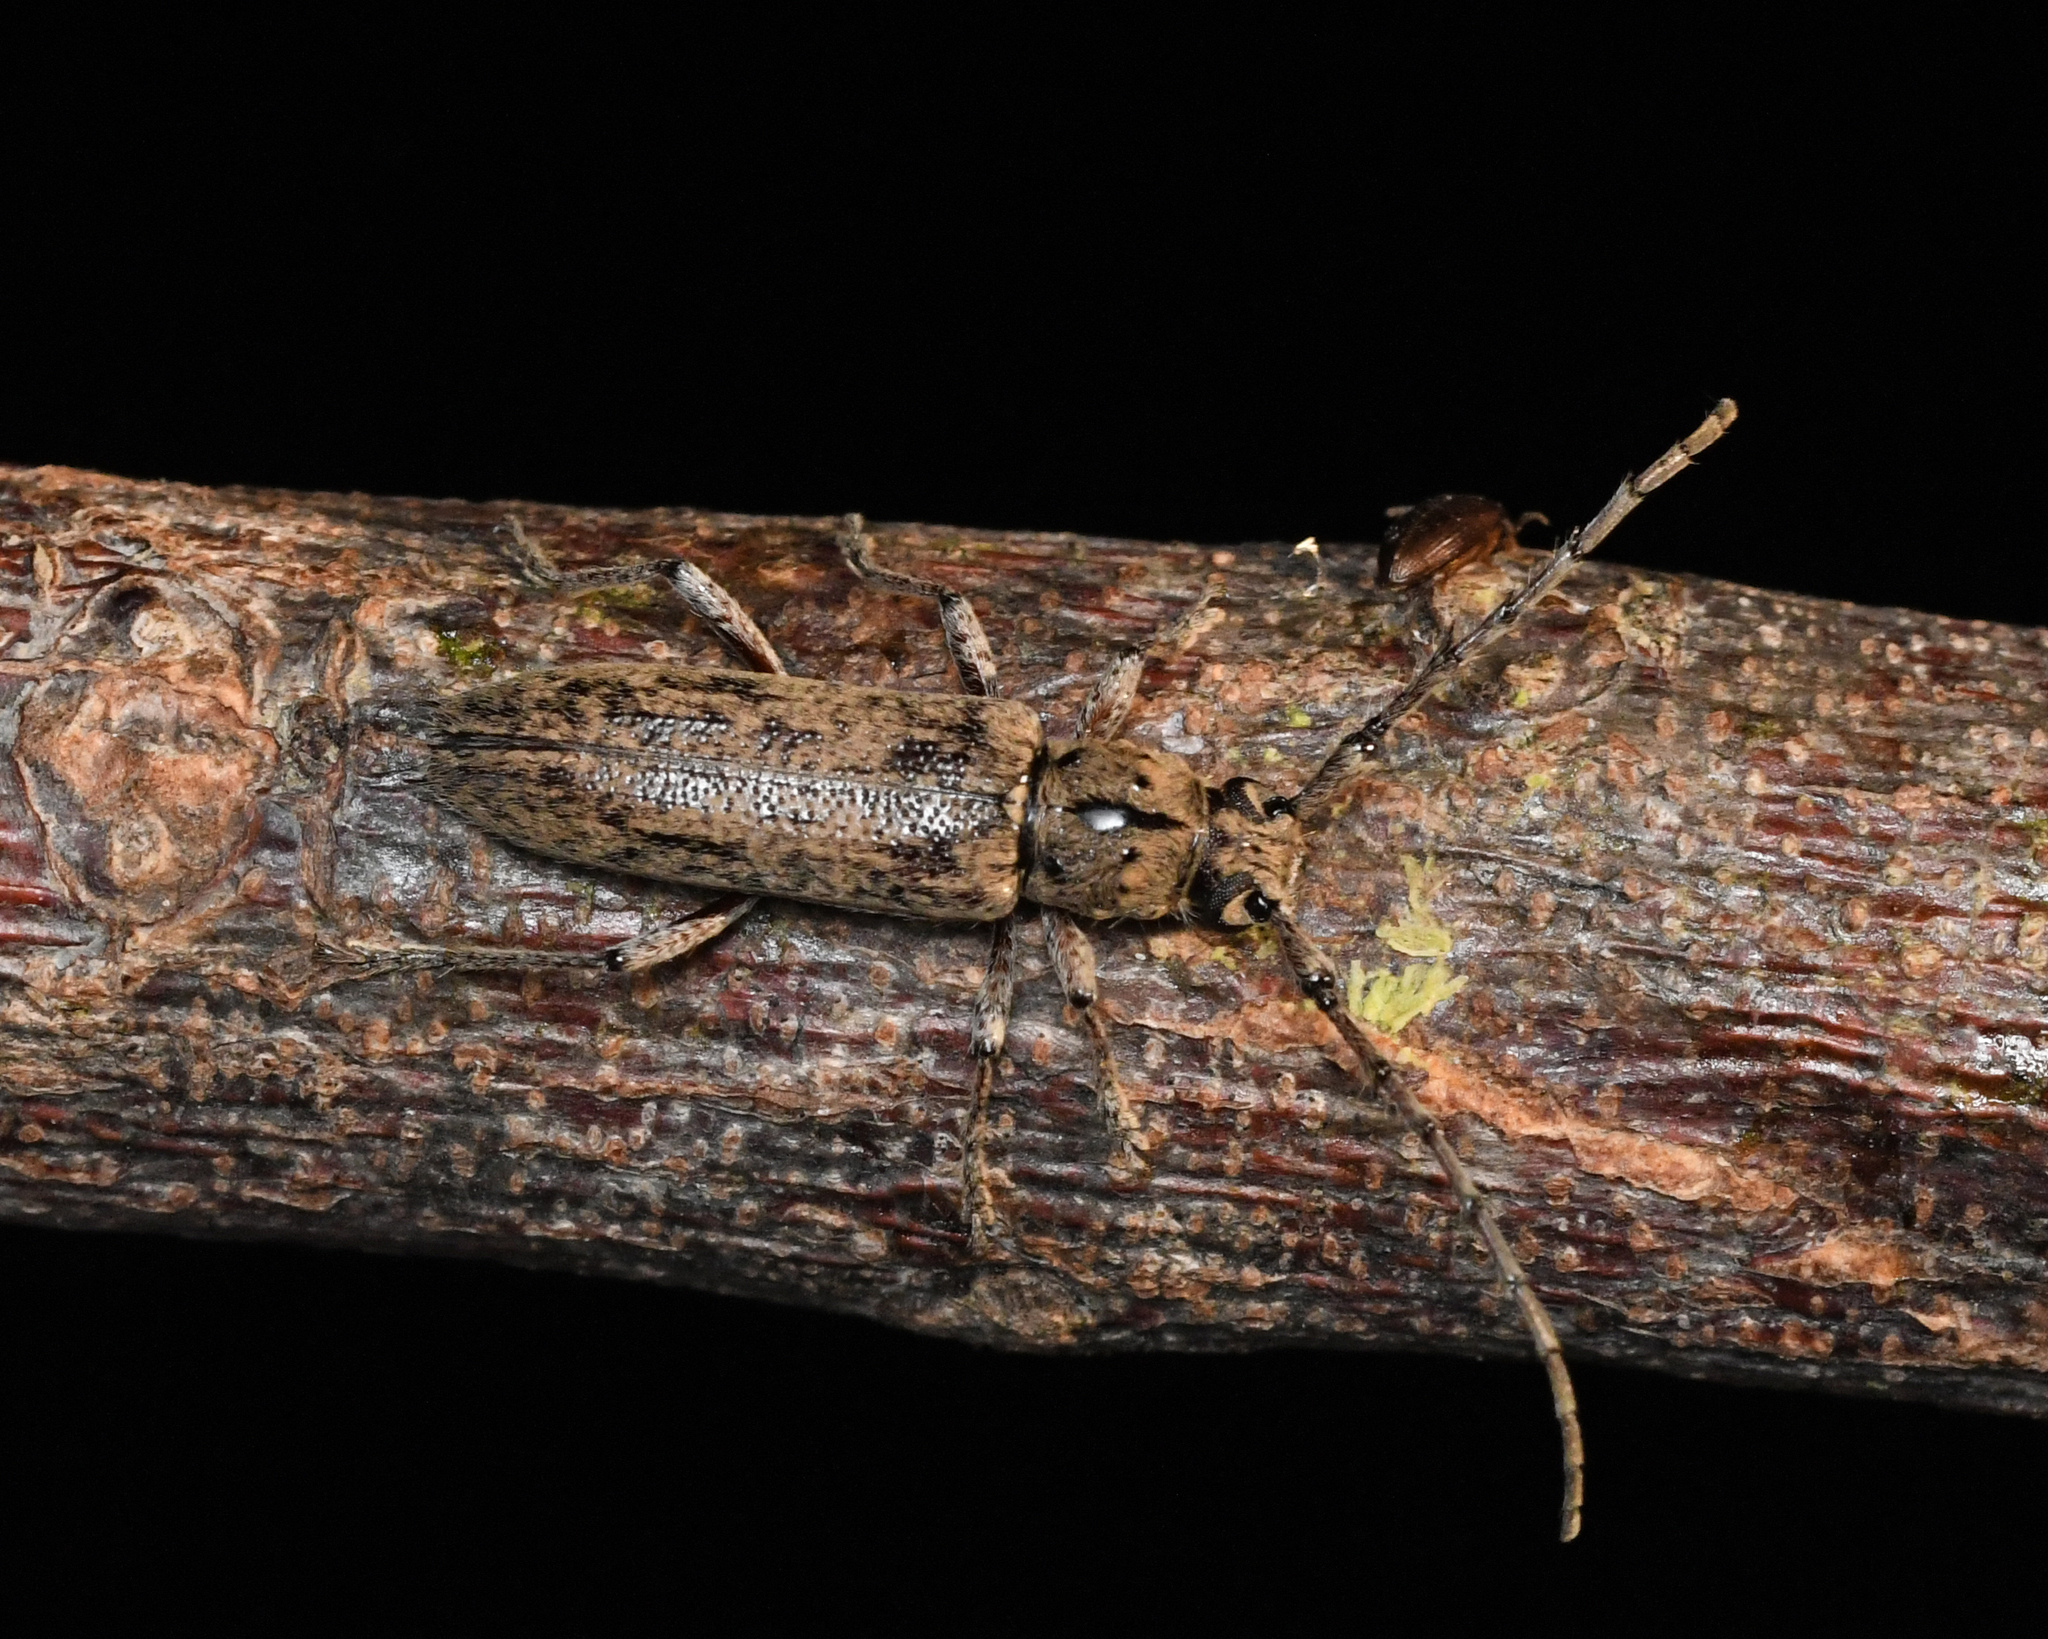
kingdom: Animalia
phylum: Arthropoda
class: Insecta
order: Coleoptera
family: Cerambycidae
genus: Elaphidion
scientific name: Elaphidion tomentosum
